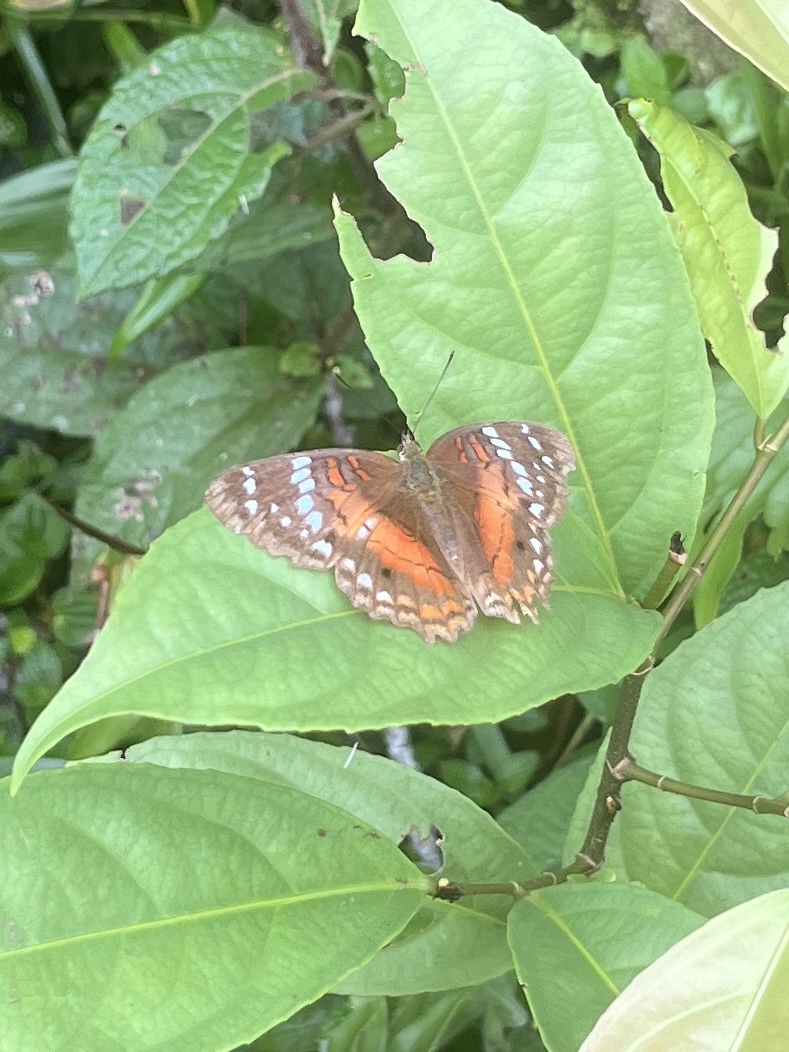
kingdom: Animalia
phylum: Arthropoda
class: Insecta
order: Lepidoptera
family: Nymphalidae
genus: Anartia
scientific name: Anartia amathea
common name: Red peacock
